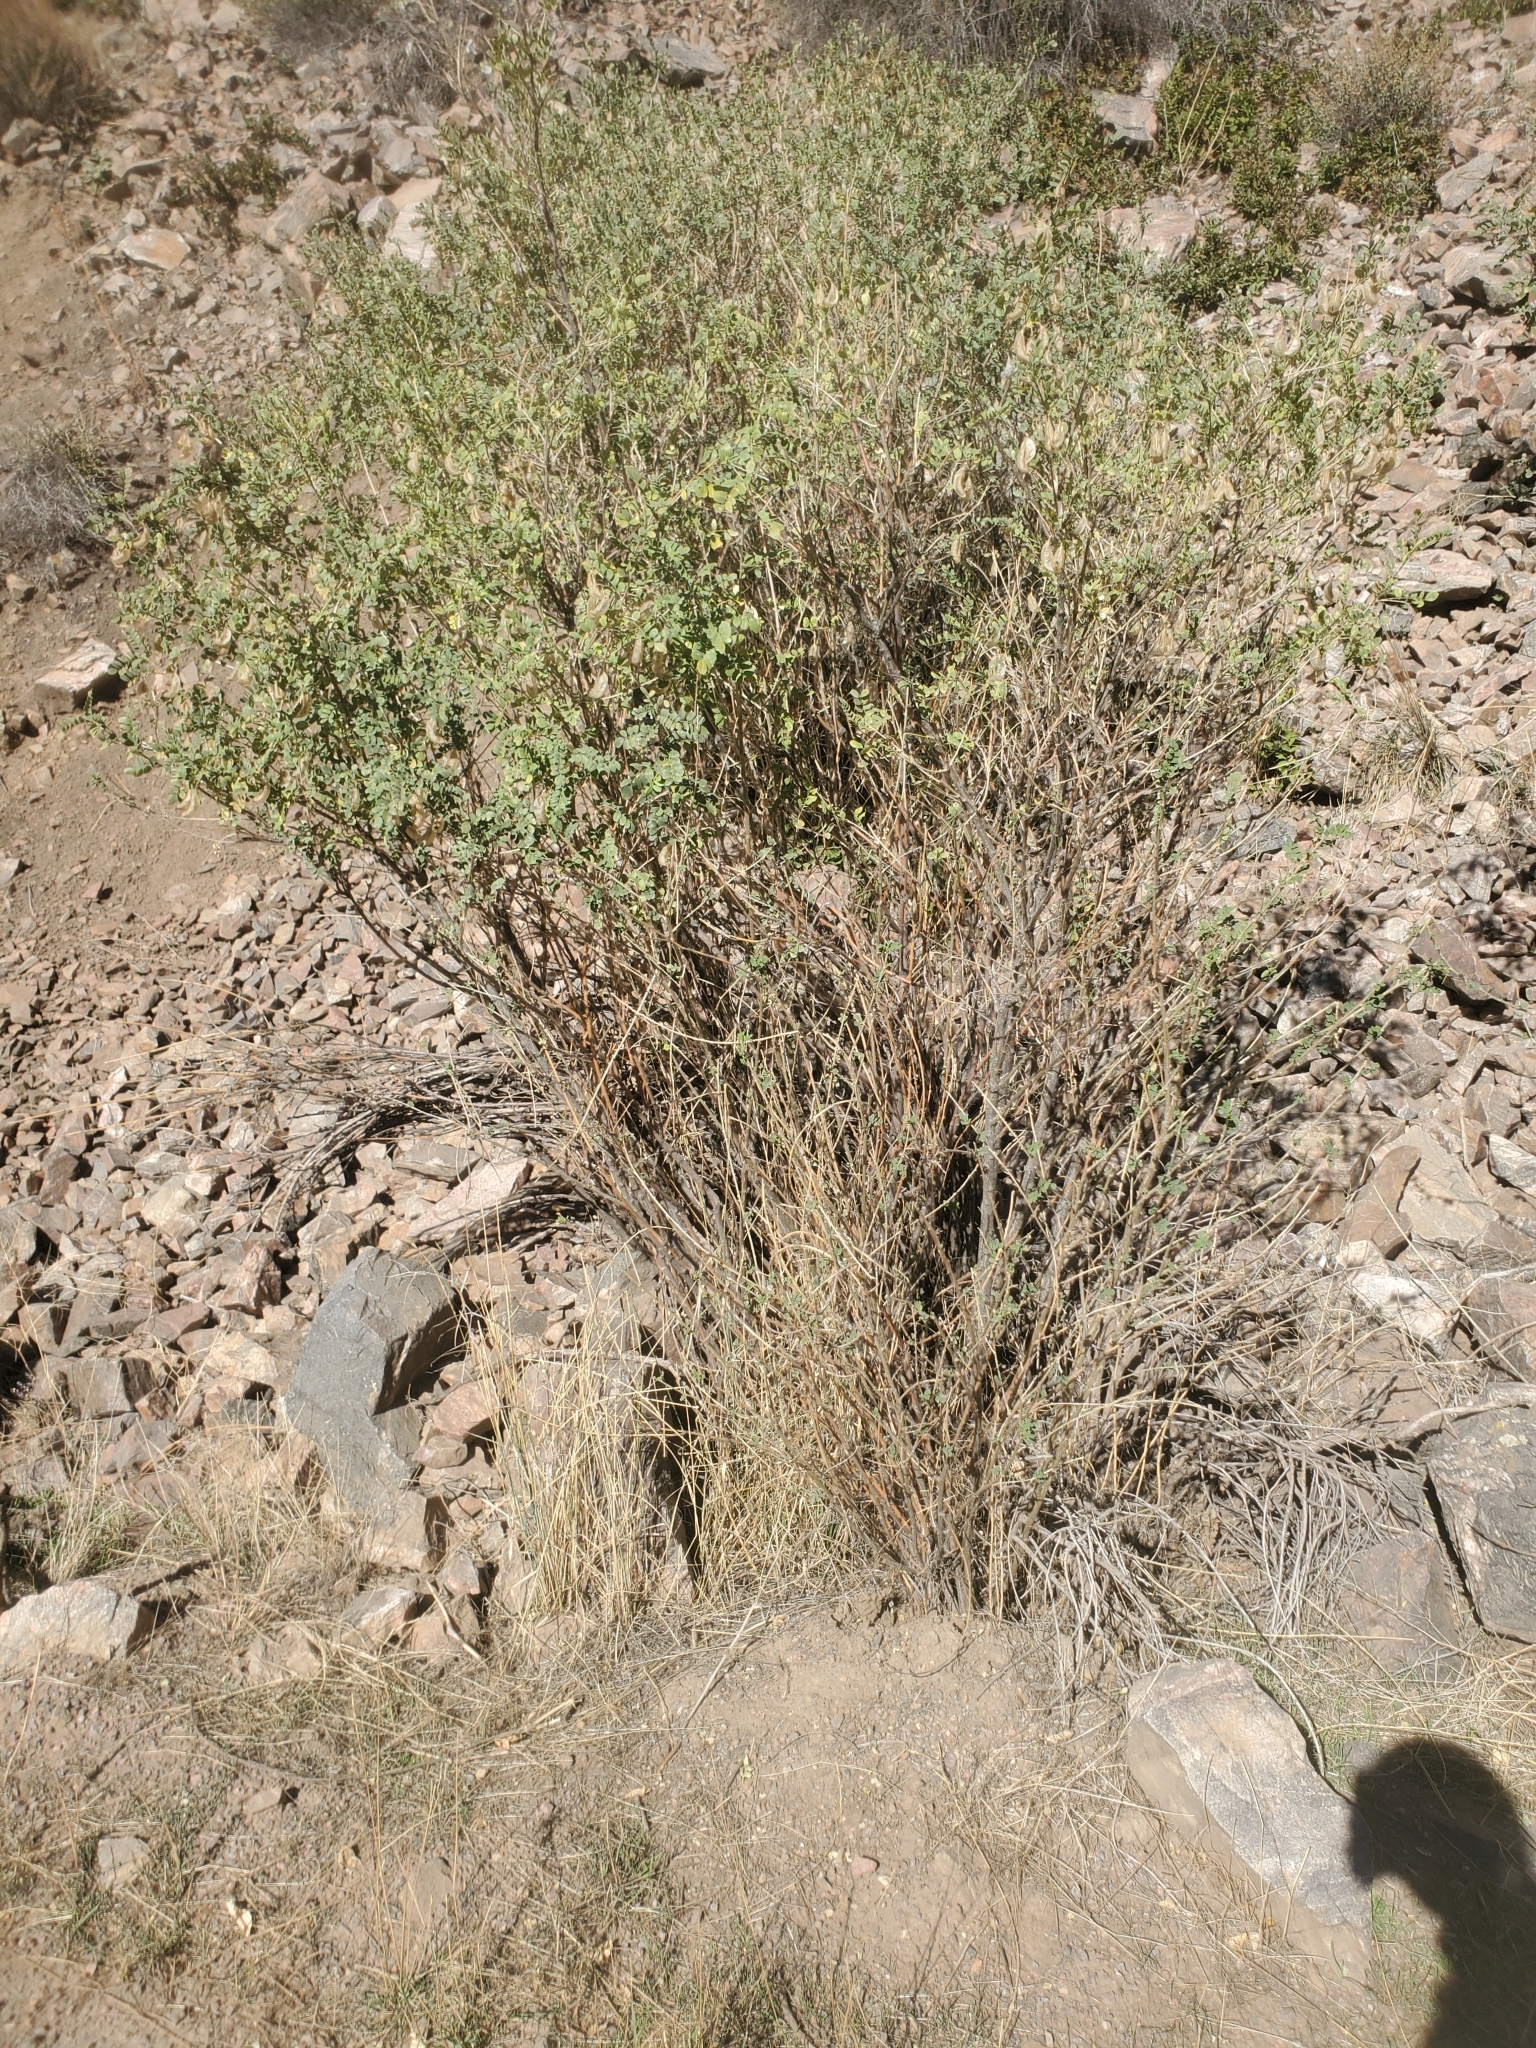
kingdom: Plantae
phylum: Tracheophyta
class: Magnoliopsida
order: Fabales
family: Fabaceae
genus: Colutea
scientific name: Colutea arborescens
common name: Bladder-senna
